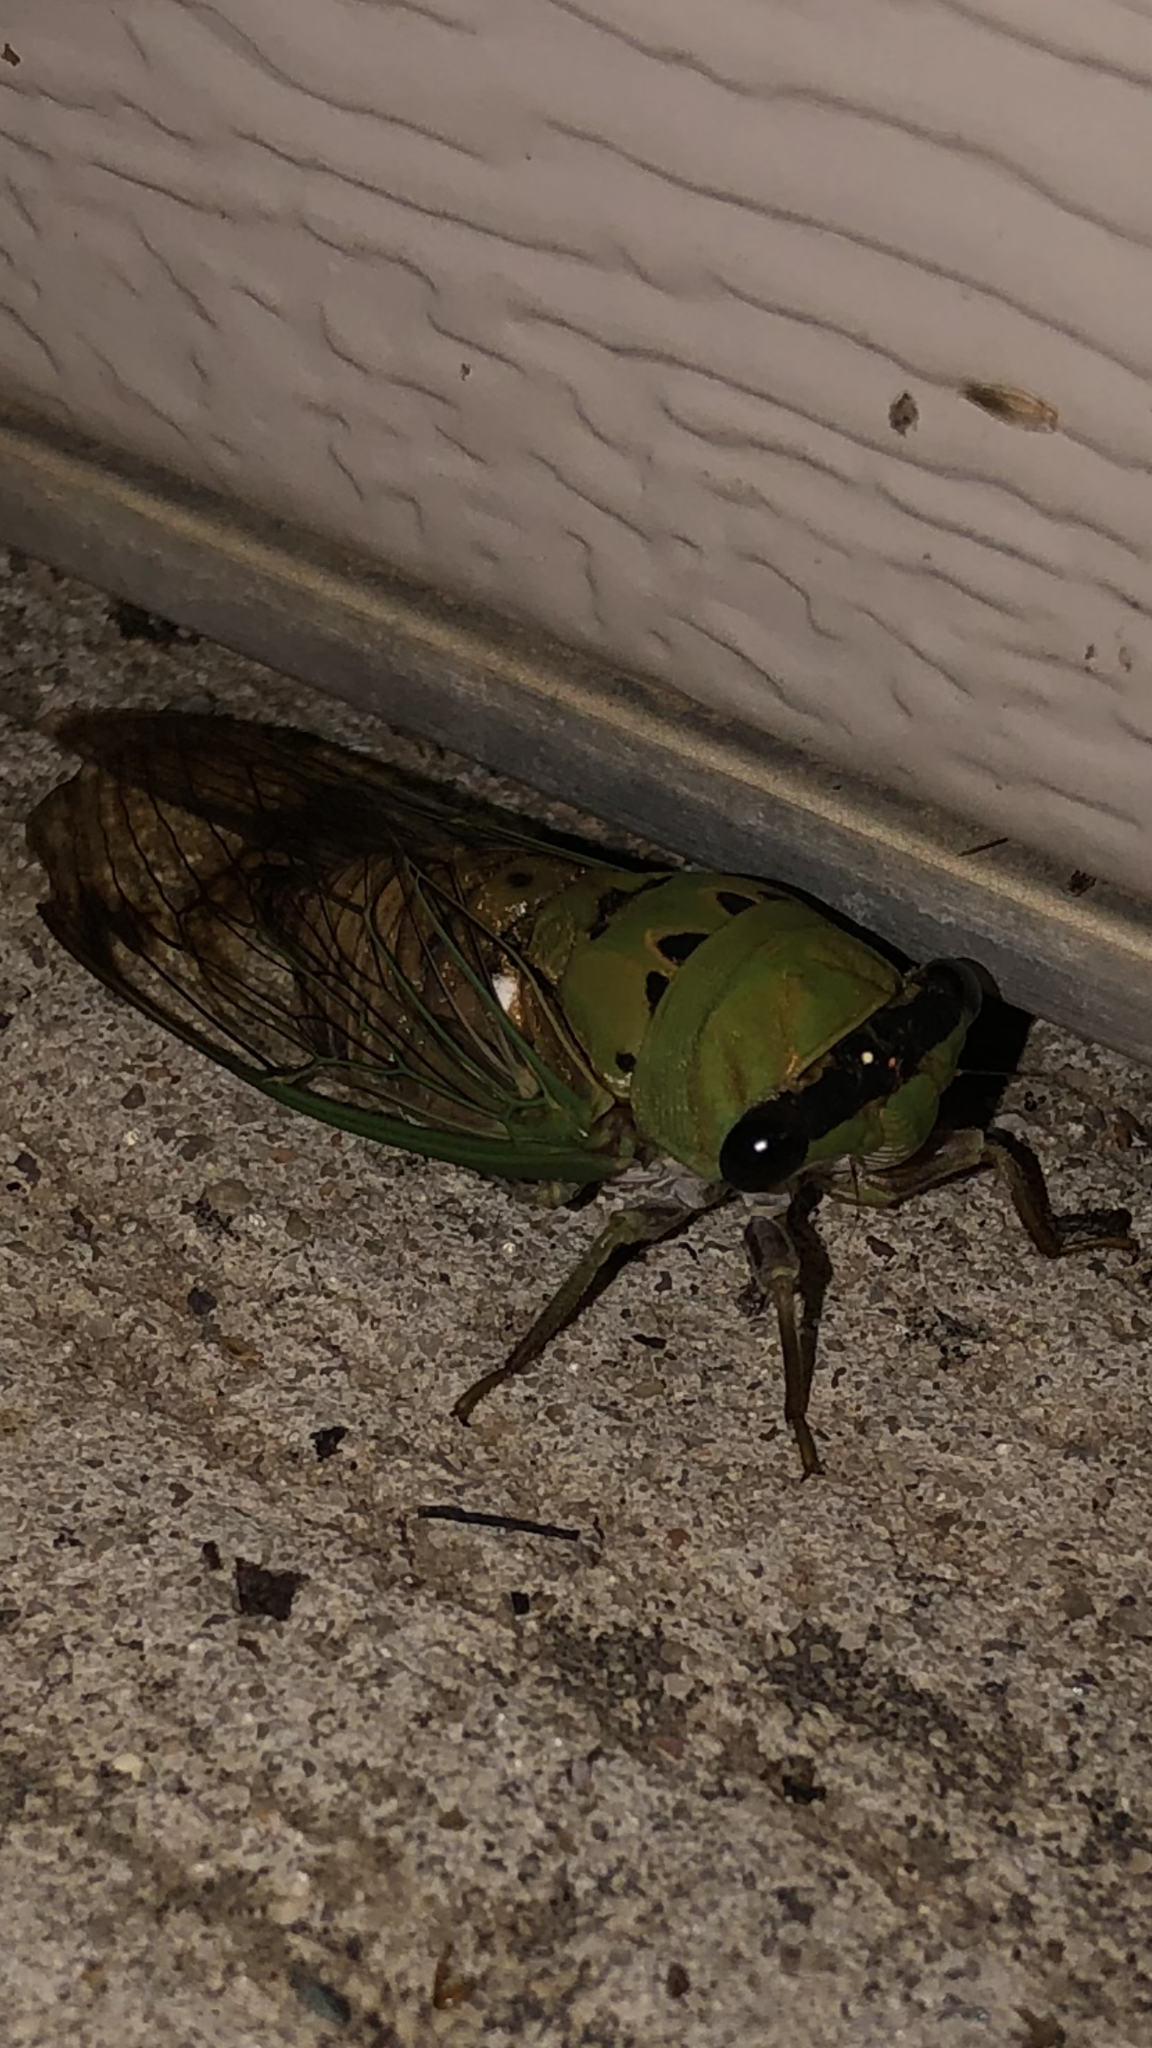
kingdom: Animalia
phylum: Arthropoda
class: Insecta
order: Hemiptera
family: Cicadidae
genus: Neotibicen
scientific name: Neotibicen superbus
